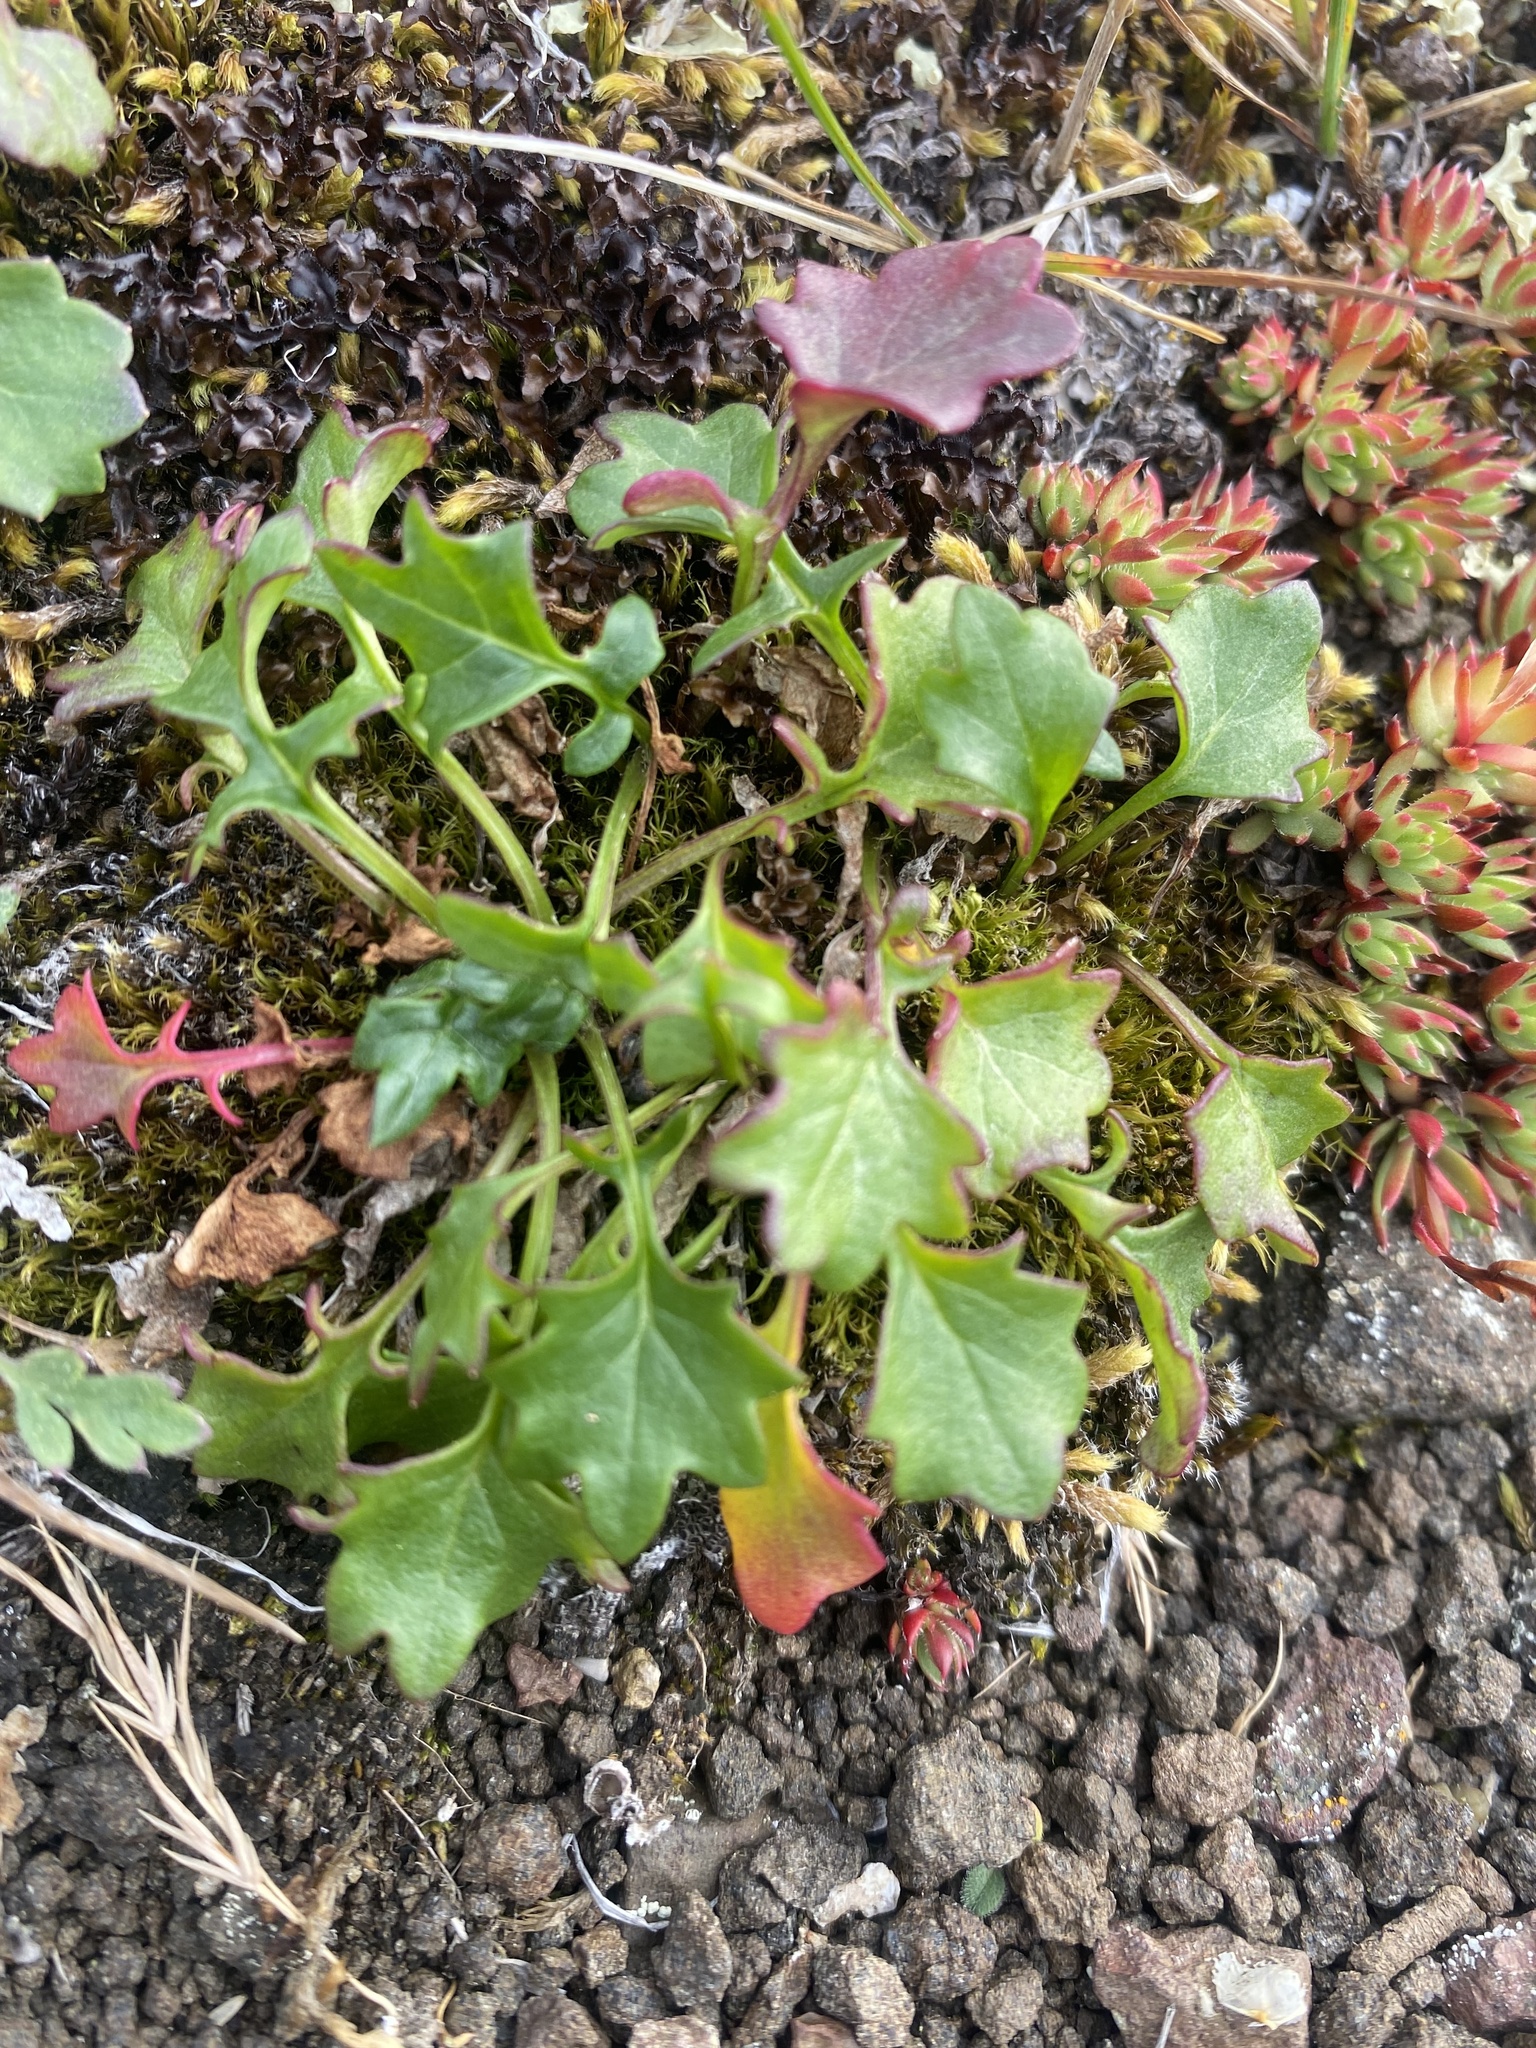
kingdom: Plantae
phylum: Tracheophyta
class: Magnoliopsida
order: Asterales
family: Asteraceae
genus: Packera
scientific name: Packera heterophylla
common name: Arctic butterweed
